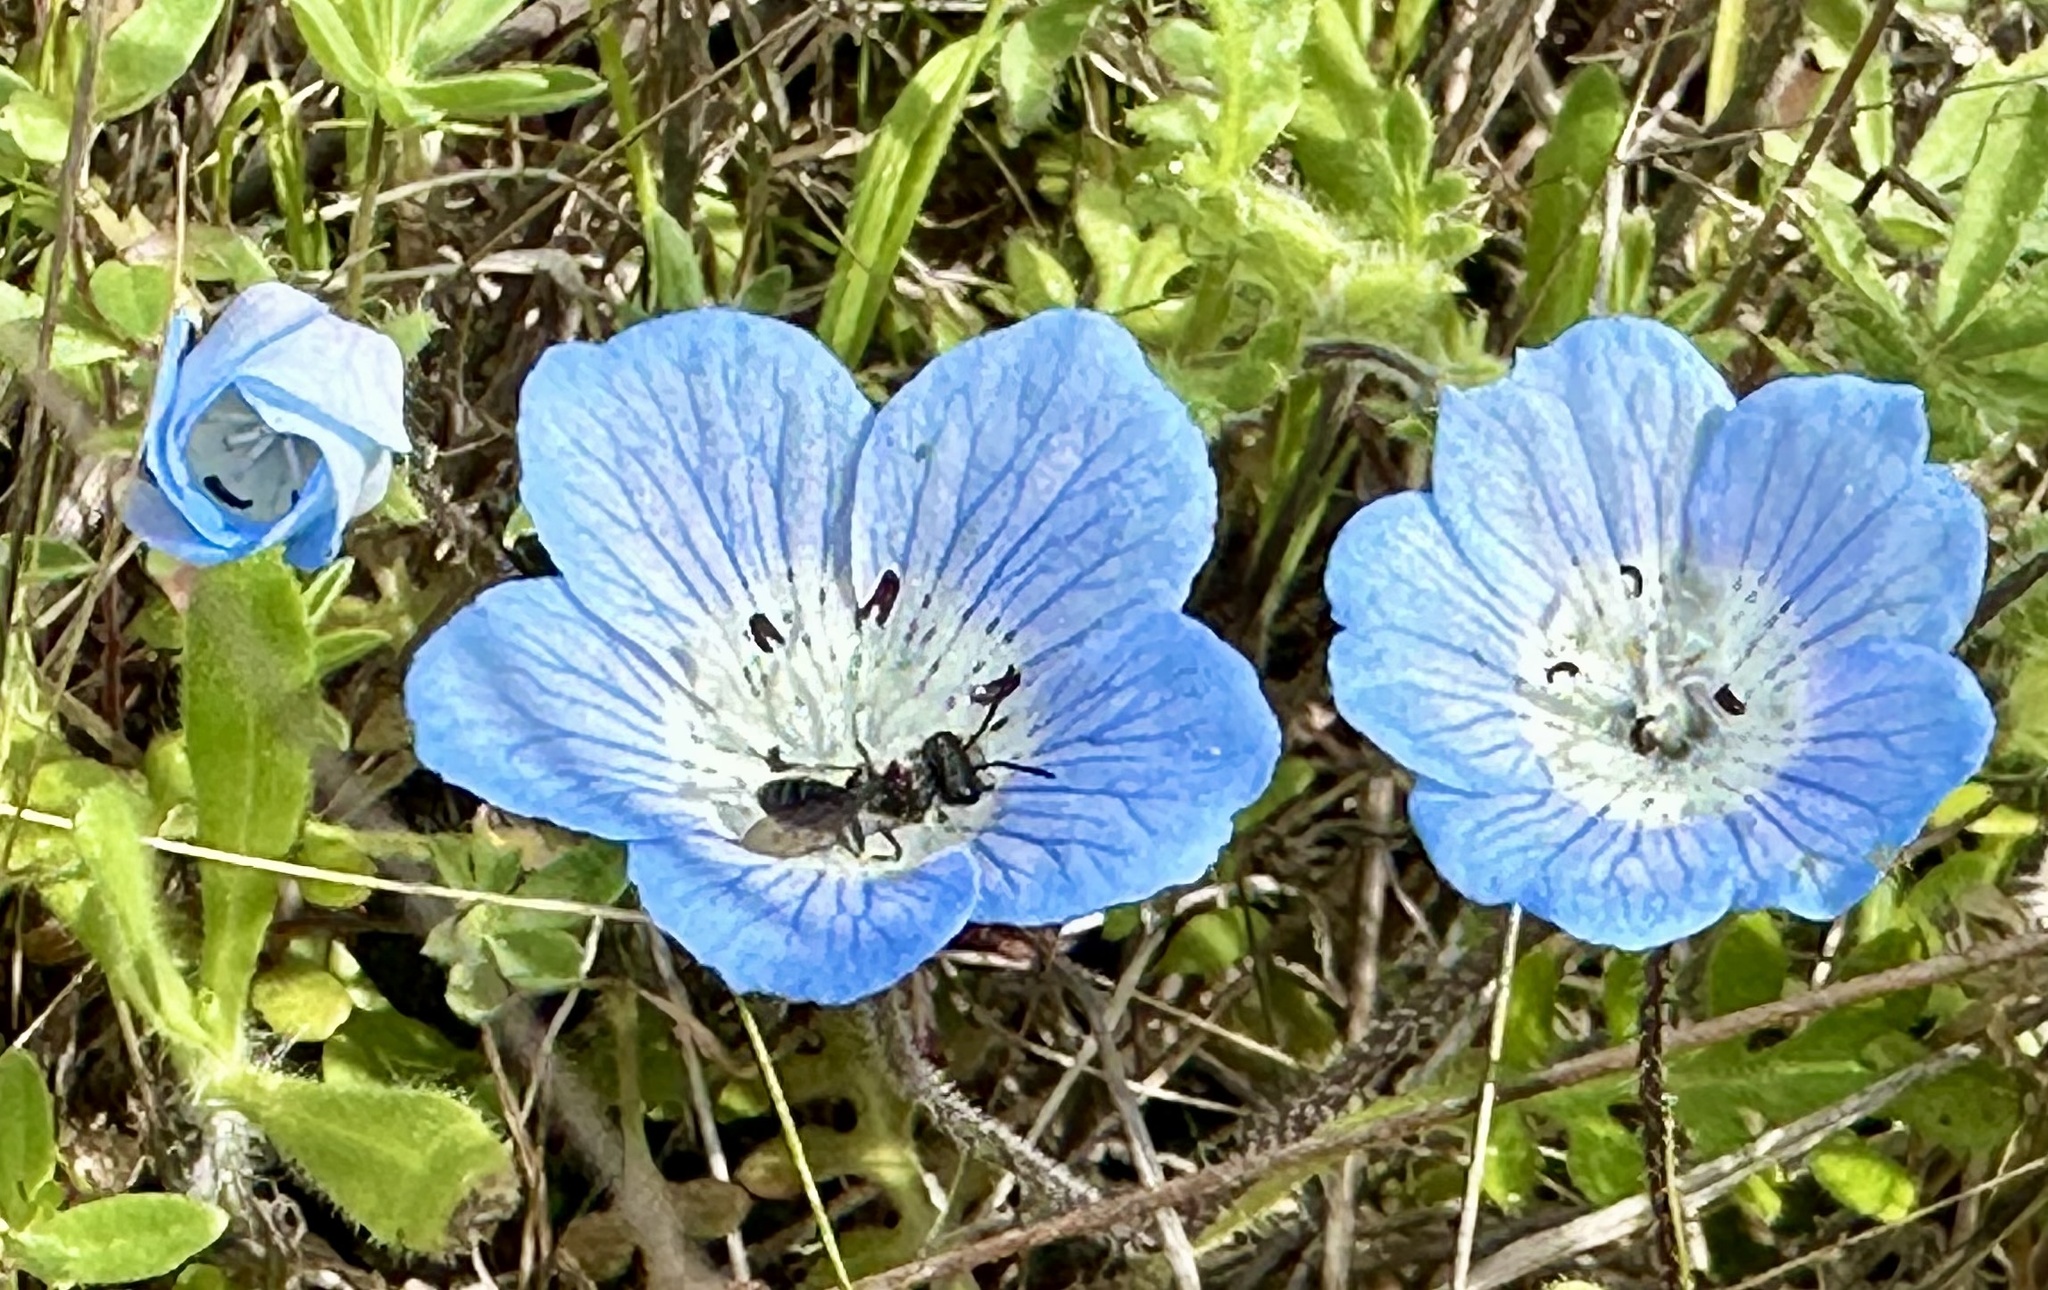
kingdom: Plantae
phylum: Tracheophyta
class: Magnoliopsida
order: Boraginales
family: Hydrophyllaceae
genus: Nemophila
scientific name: Nemophila menziesii
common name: Baby's-blue-eyes
